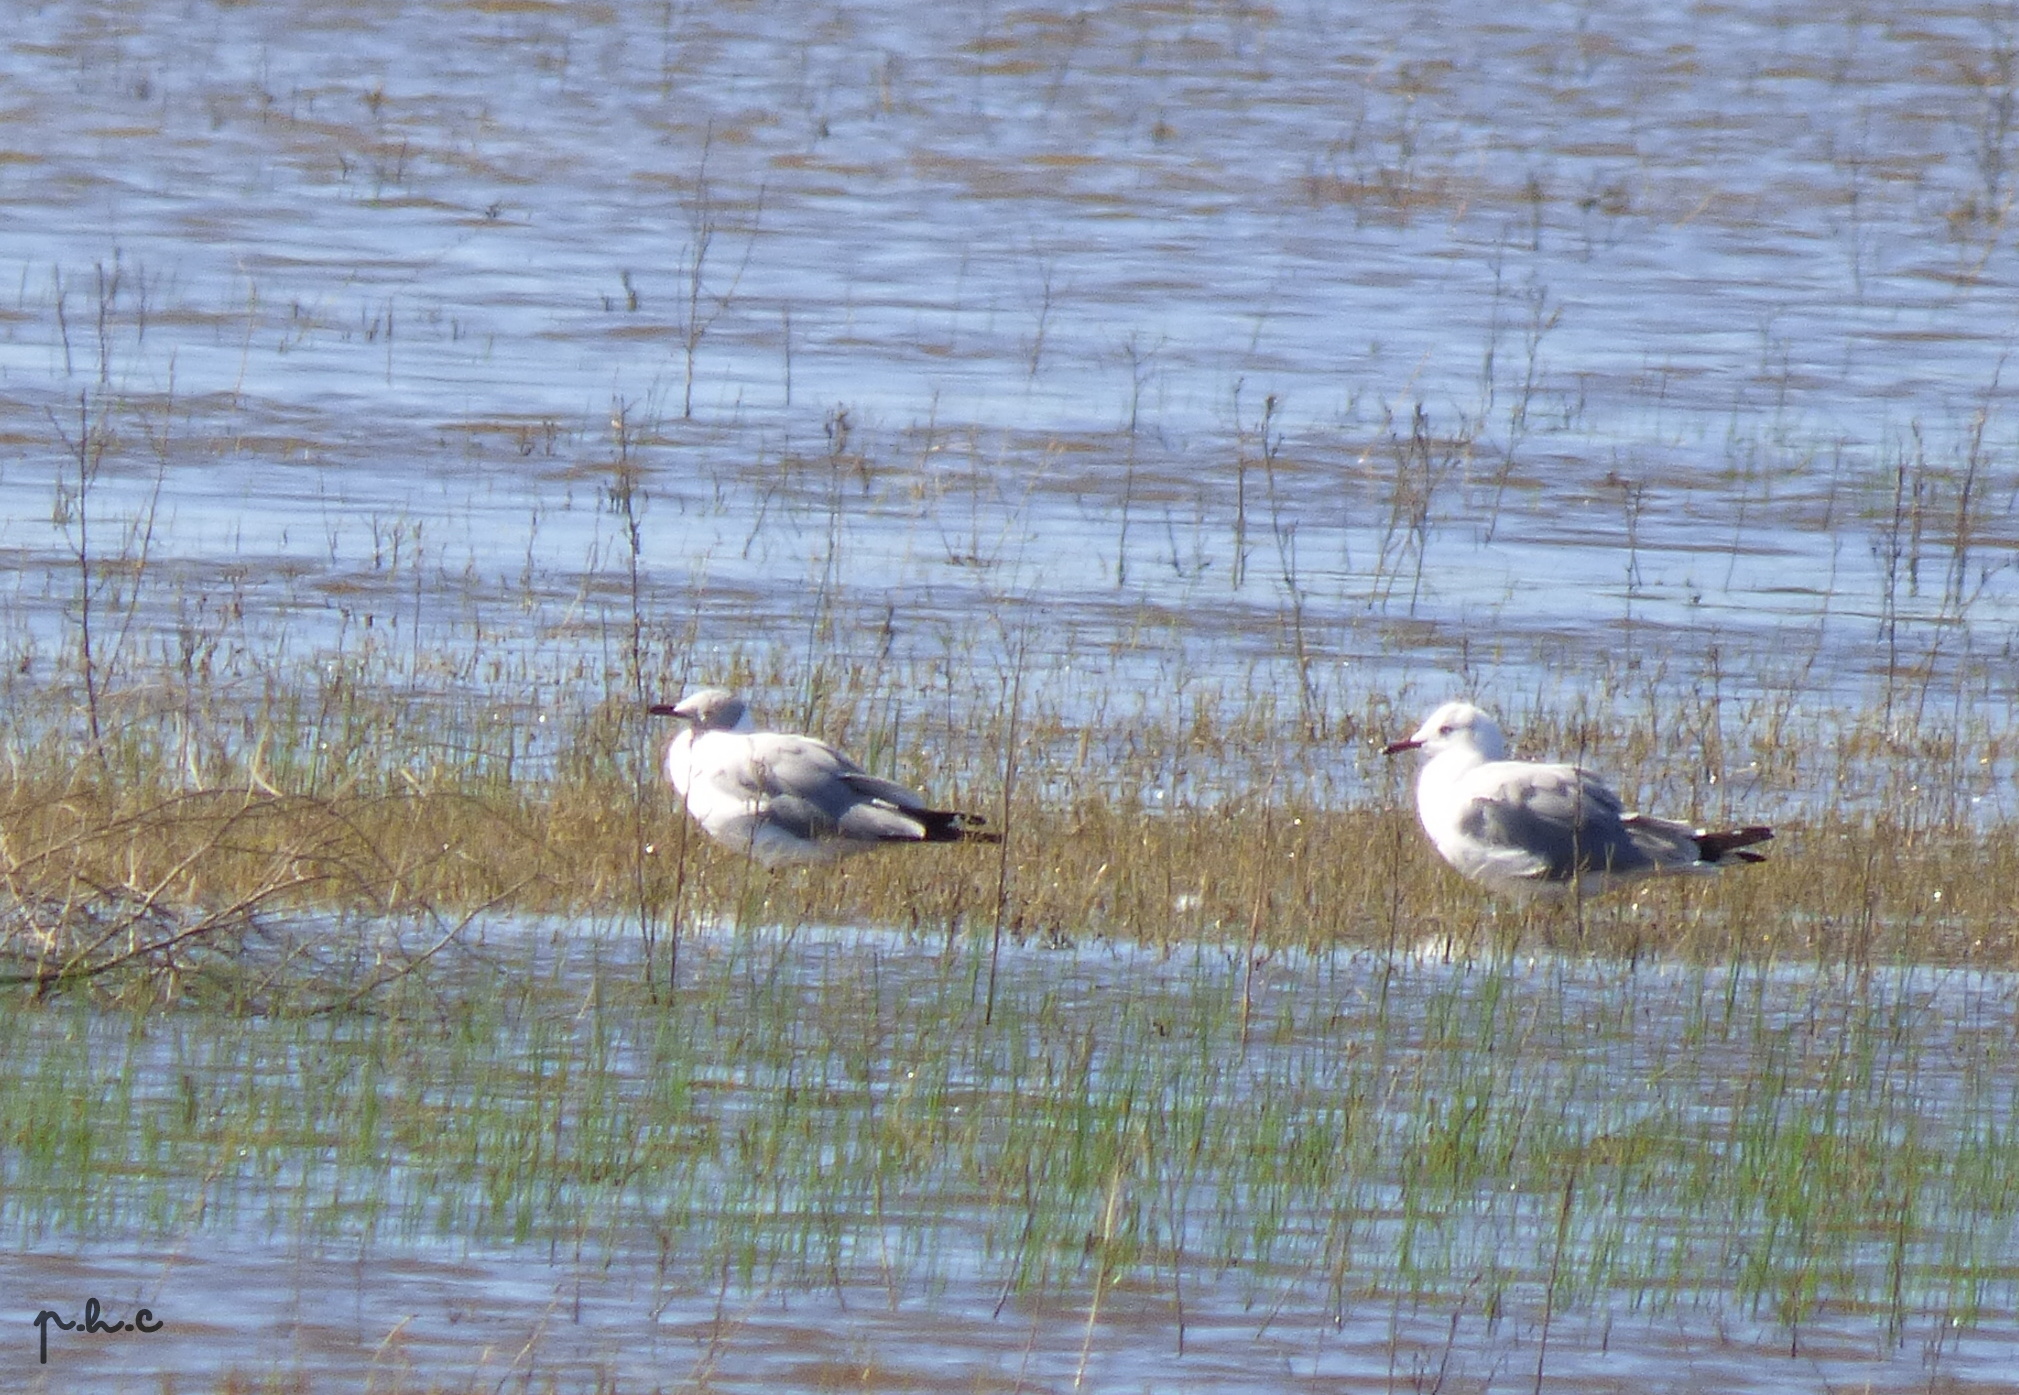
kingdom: Animalia
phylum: Chordata
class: Aves
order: Charadriiformes
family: Laridae
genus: Chroicocephalus
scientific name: Chroicocephalus cirrocephalus
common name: Grey-headed gull
